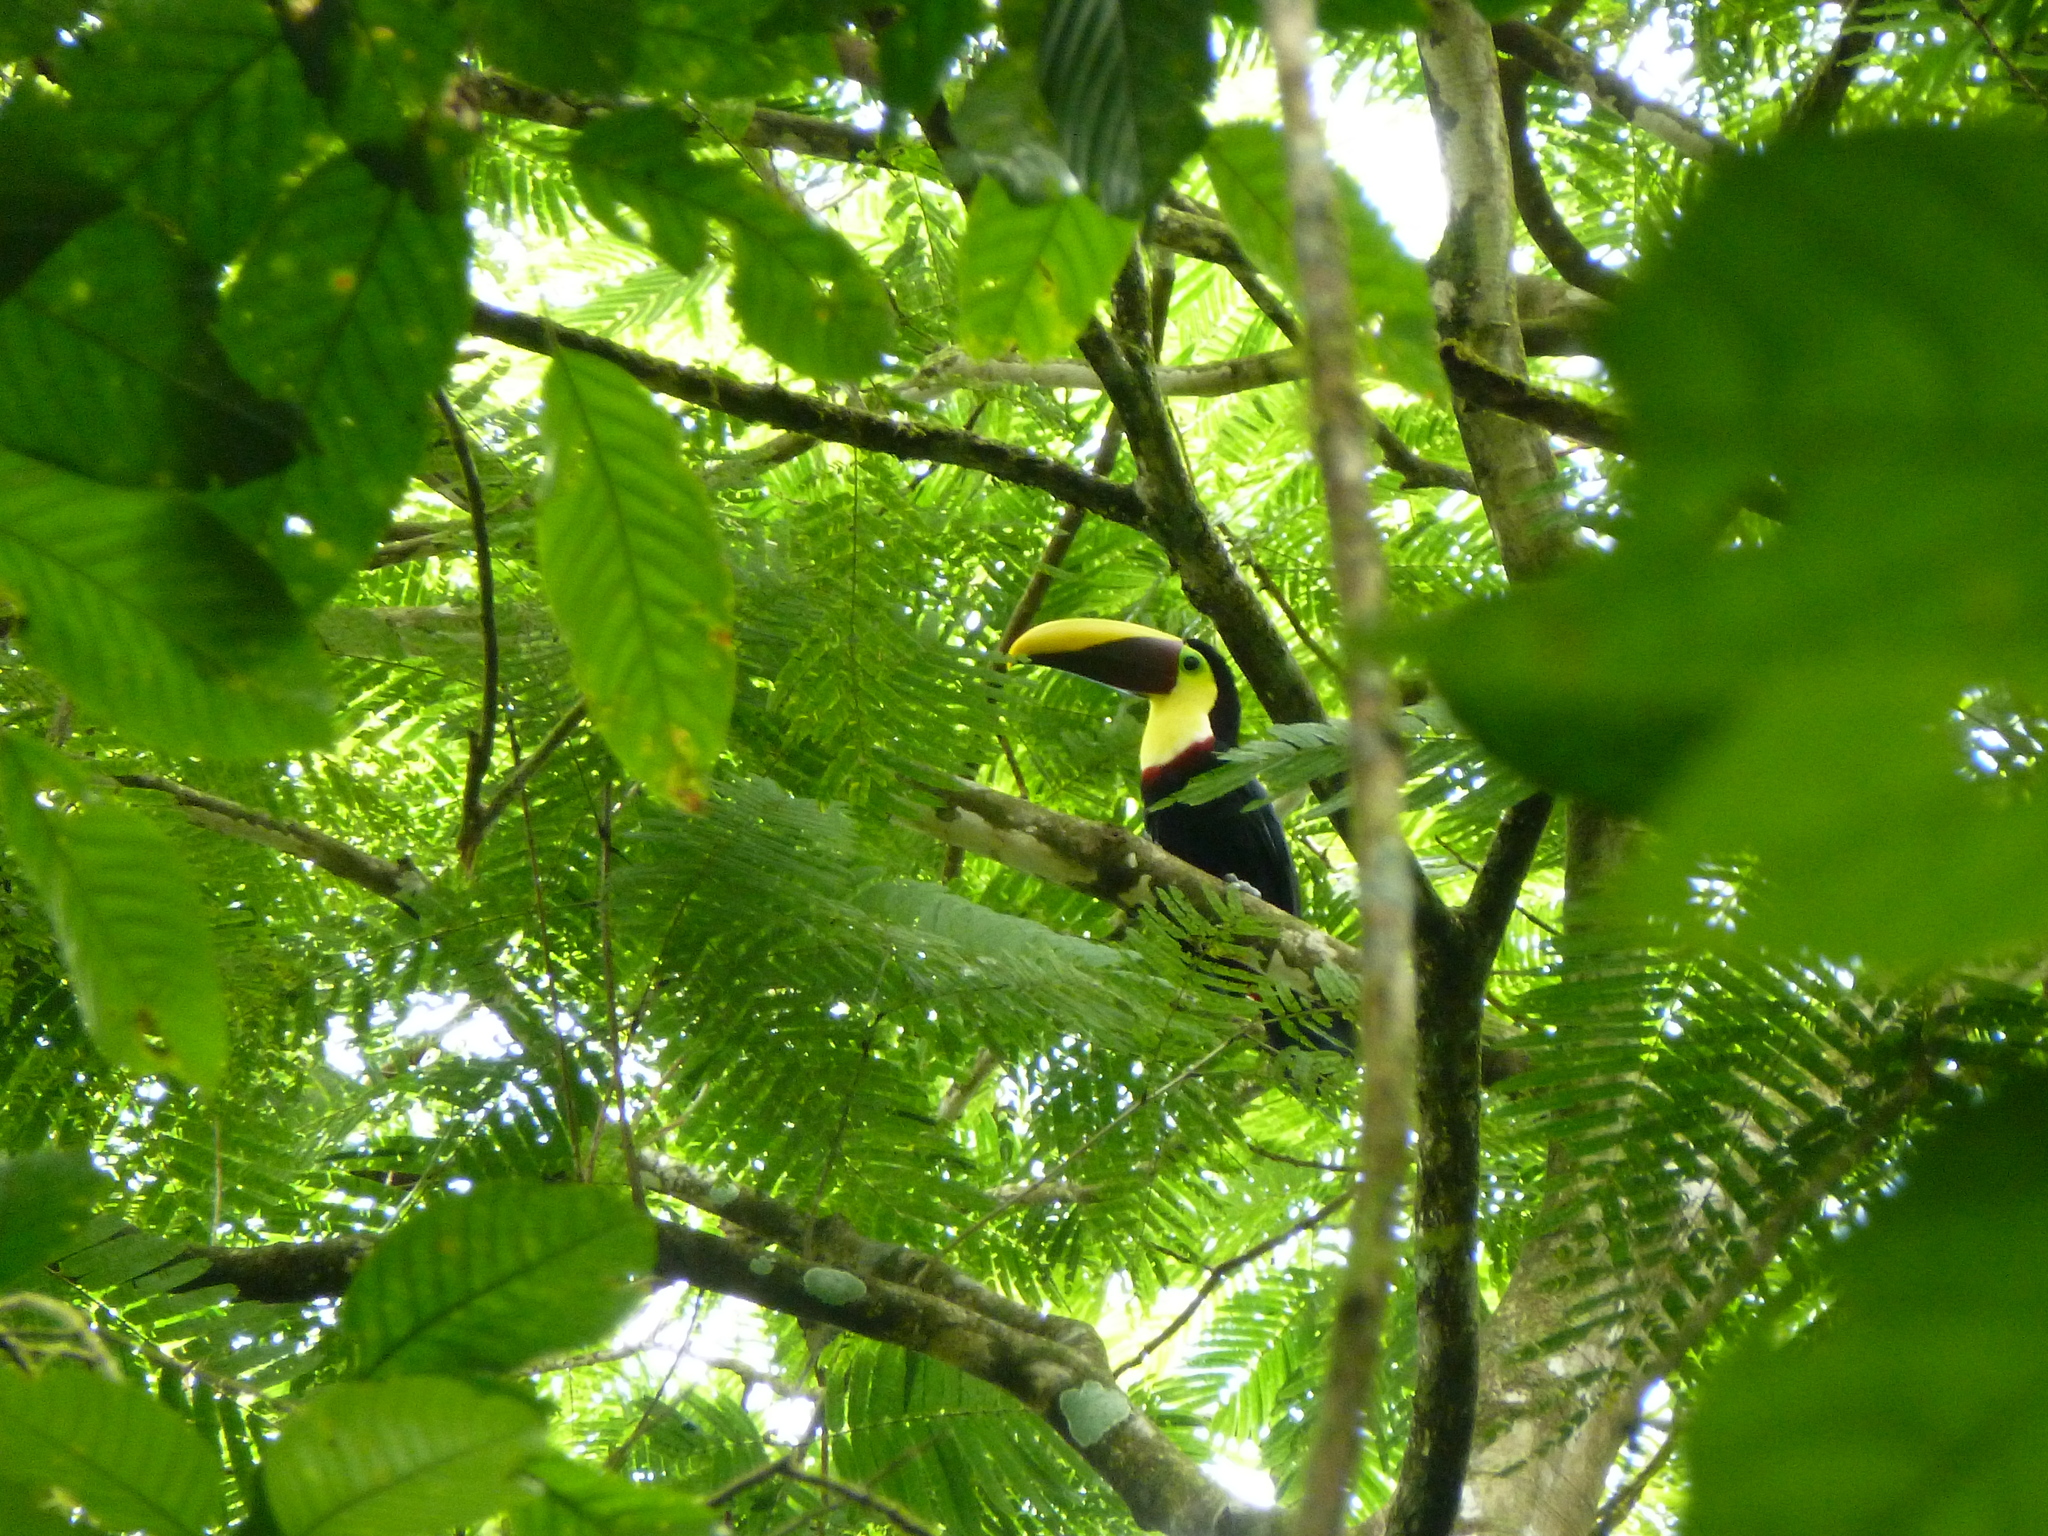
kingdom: Animalia
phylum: Chordata
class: Aves
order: Piciformes
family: Ramphastidae
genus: Ramphastos
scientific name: Ramphastos ambiguus
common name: Yellow-throated toucan
